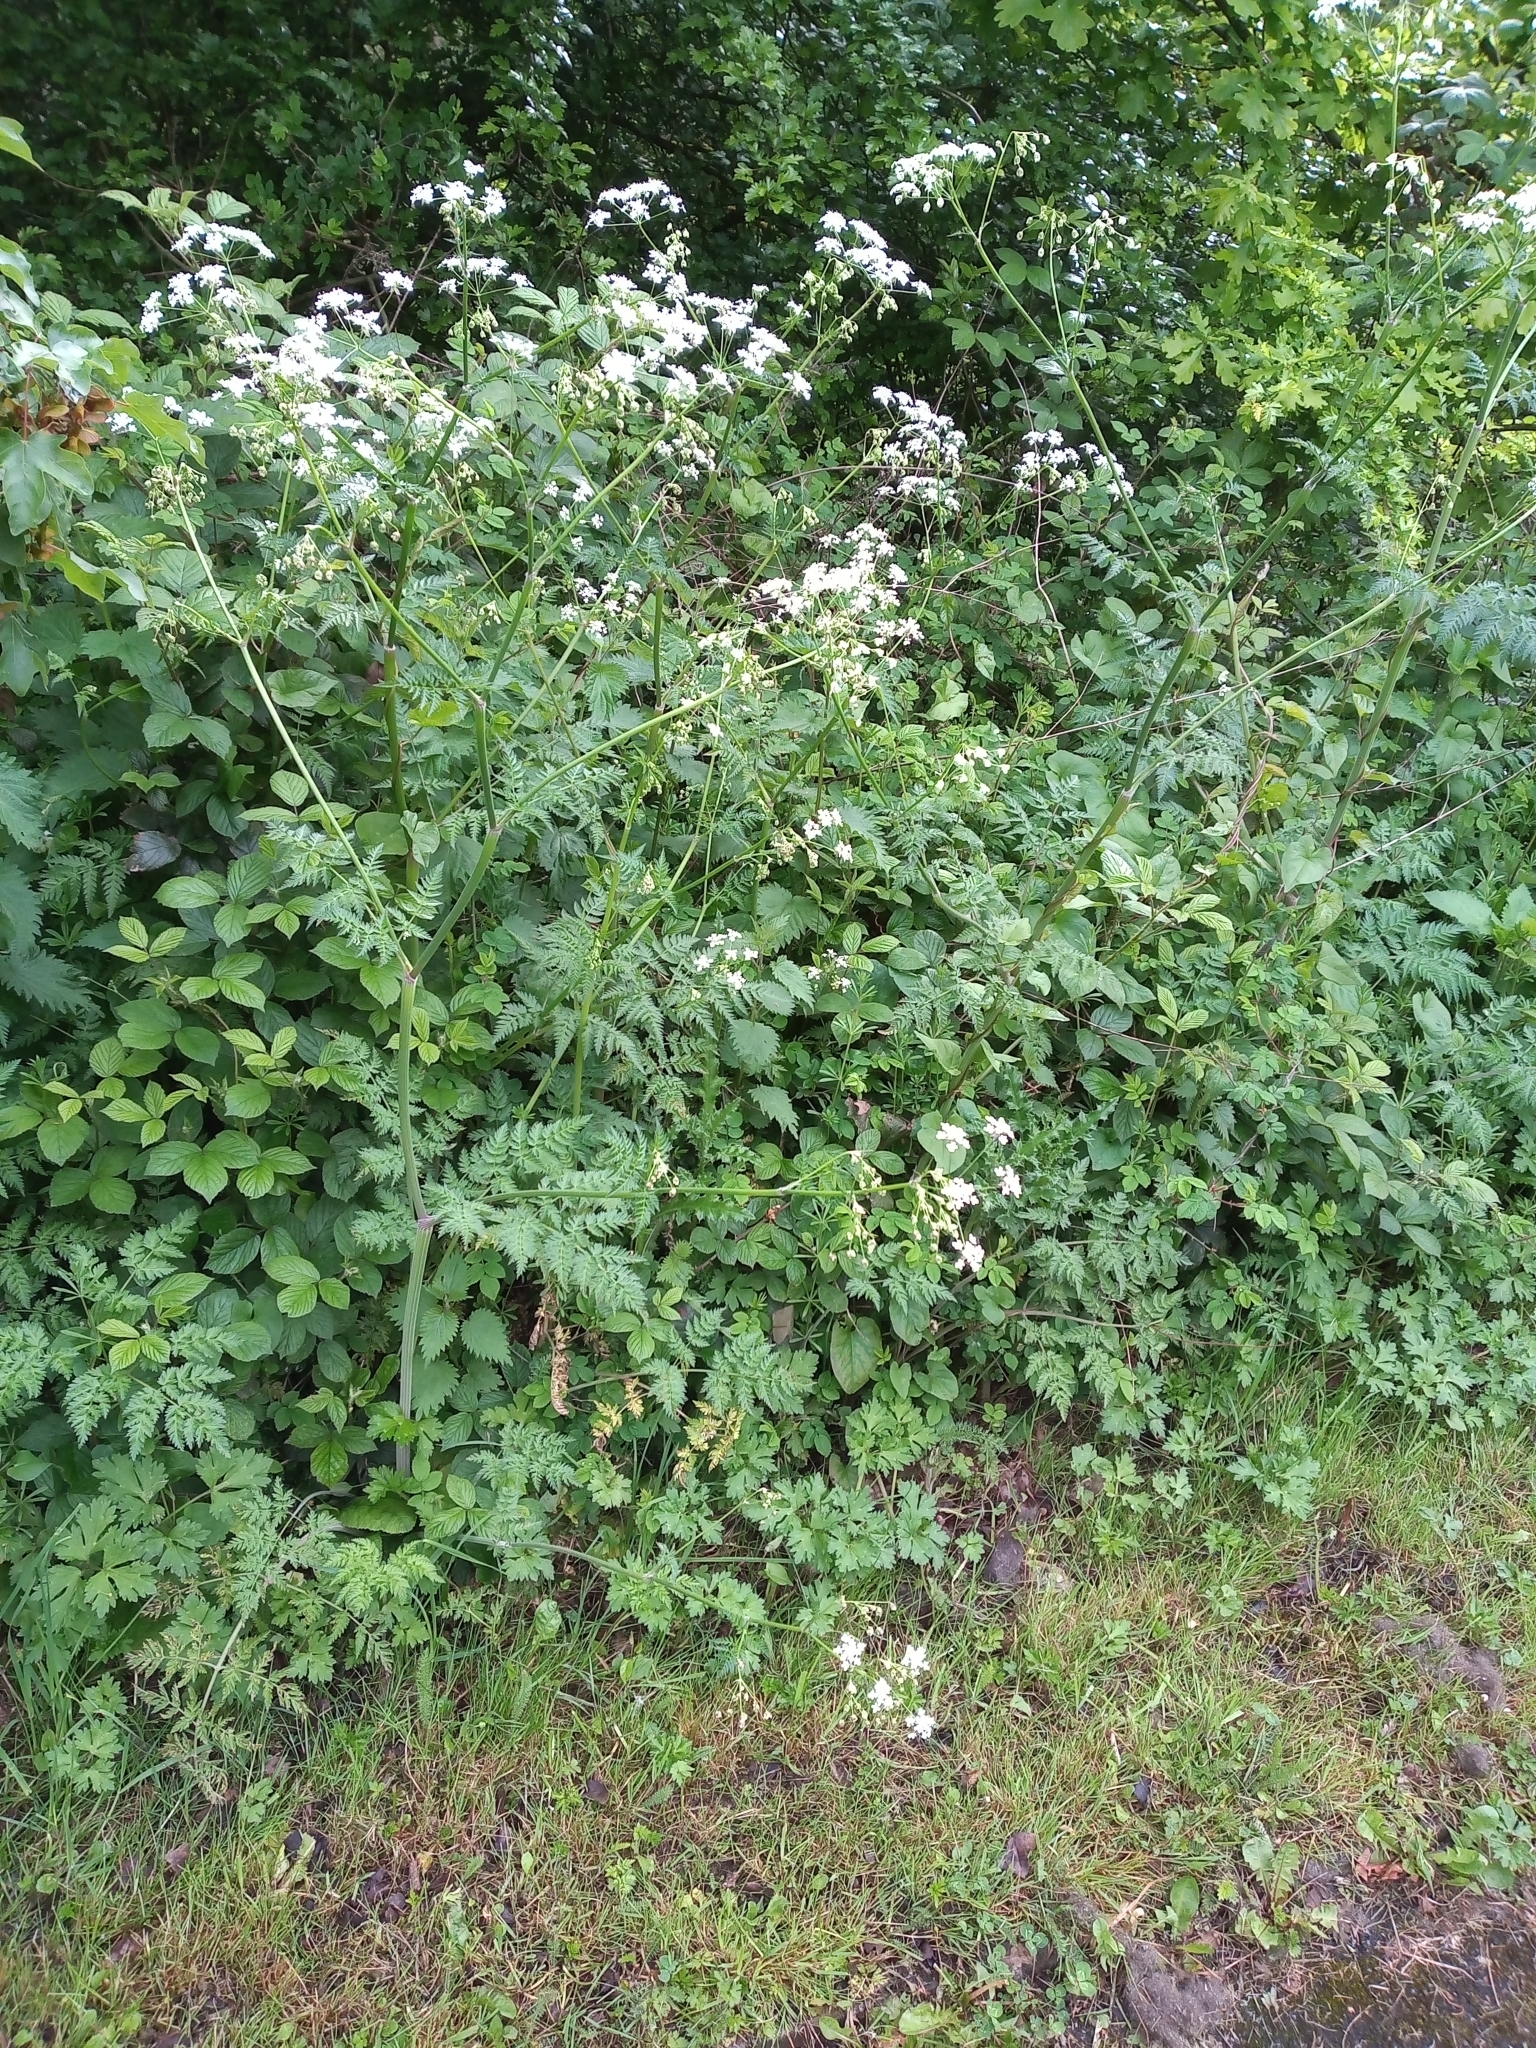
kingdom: Plantae
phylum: Tracheophyta
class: Magnoliopsida
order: Apiales
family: Apiaceae
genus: Anthriscus
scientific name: Anthriscus sylvestris
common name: Cow parsley
